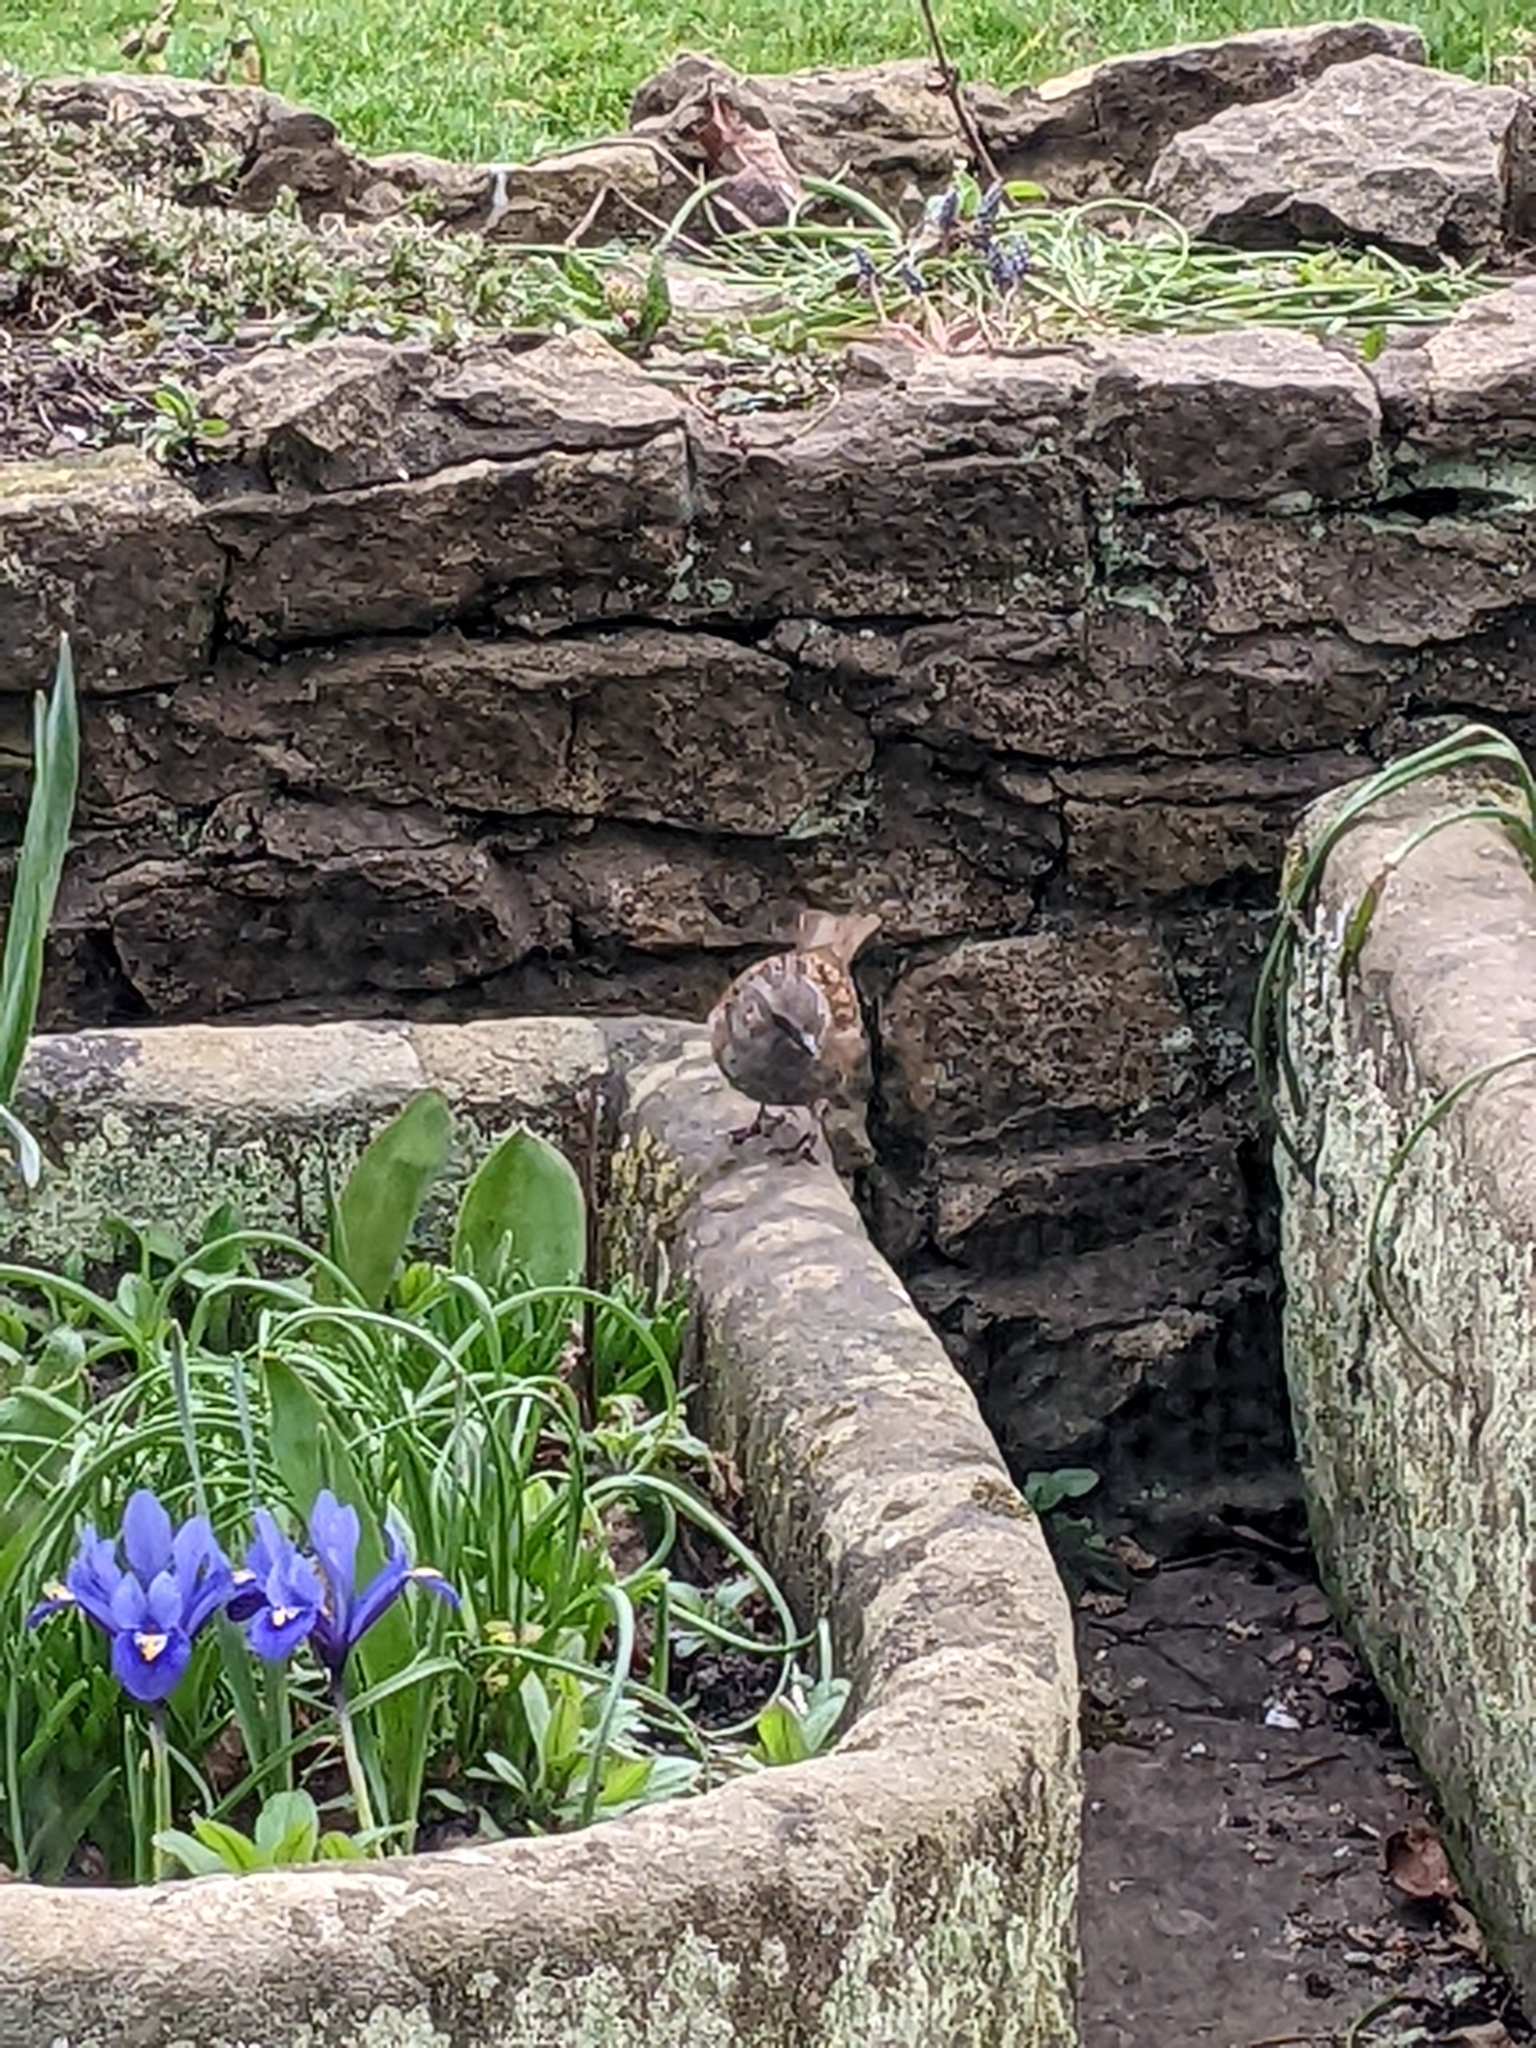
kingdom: Animalia
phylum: Chordata
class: Aves
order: Passeriformes
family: Prunellidae
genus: Prunella
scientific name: Prunella modularis
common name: Dunnock
